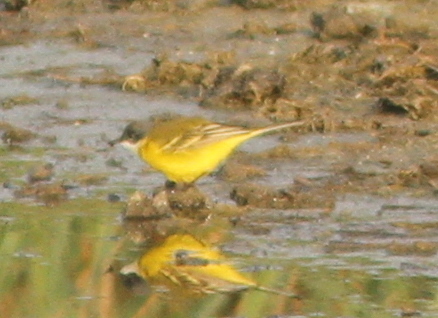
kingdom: Animalia
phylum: Chordata
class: Aves
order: Passeriformes
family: Motacillidae
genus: Motacilla
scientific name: Motacilla flava
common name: Western yellow wagtail
